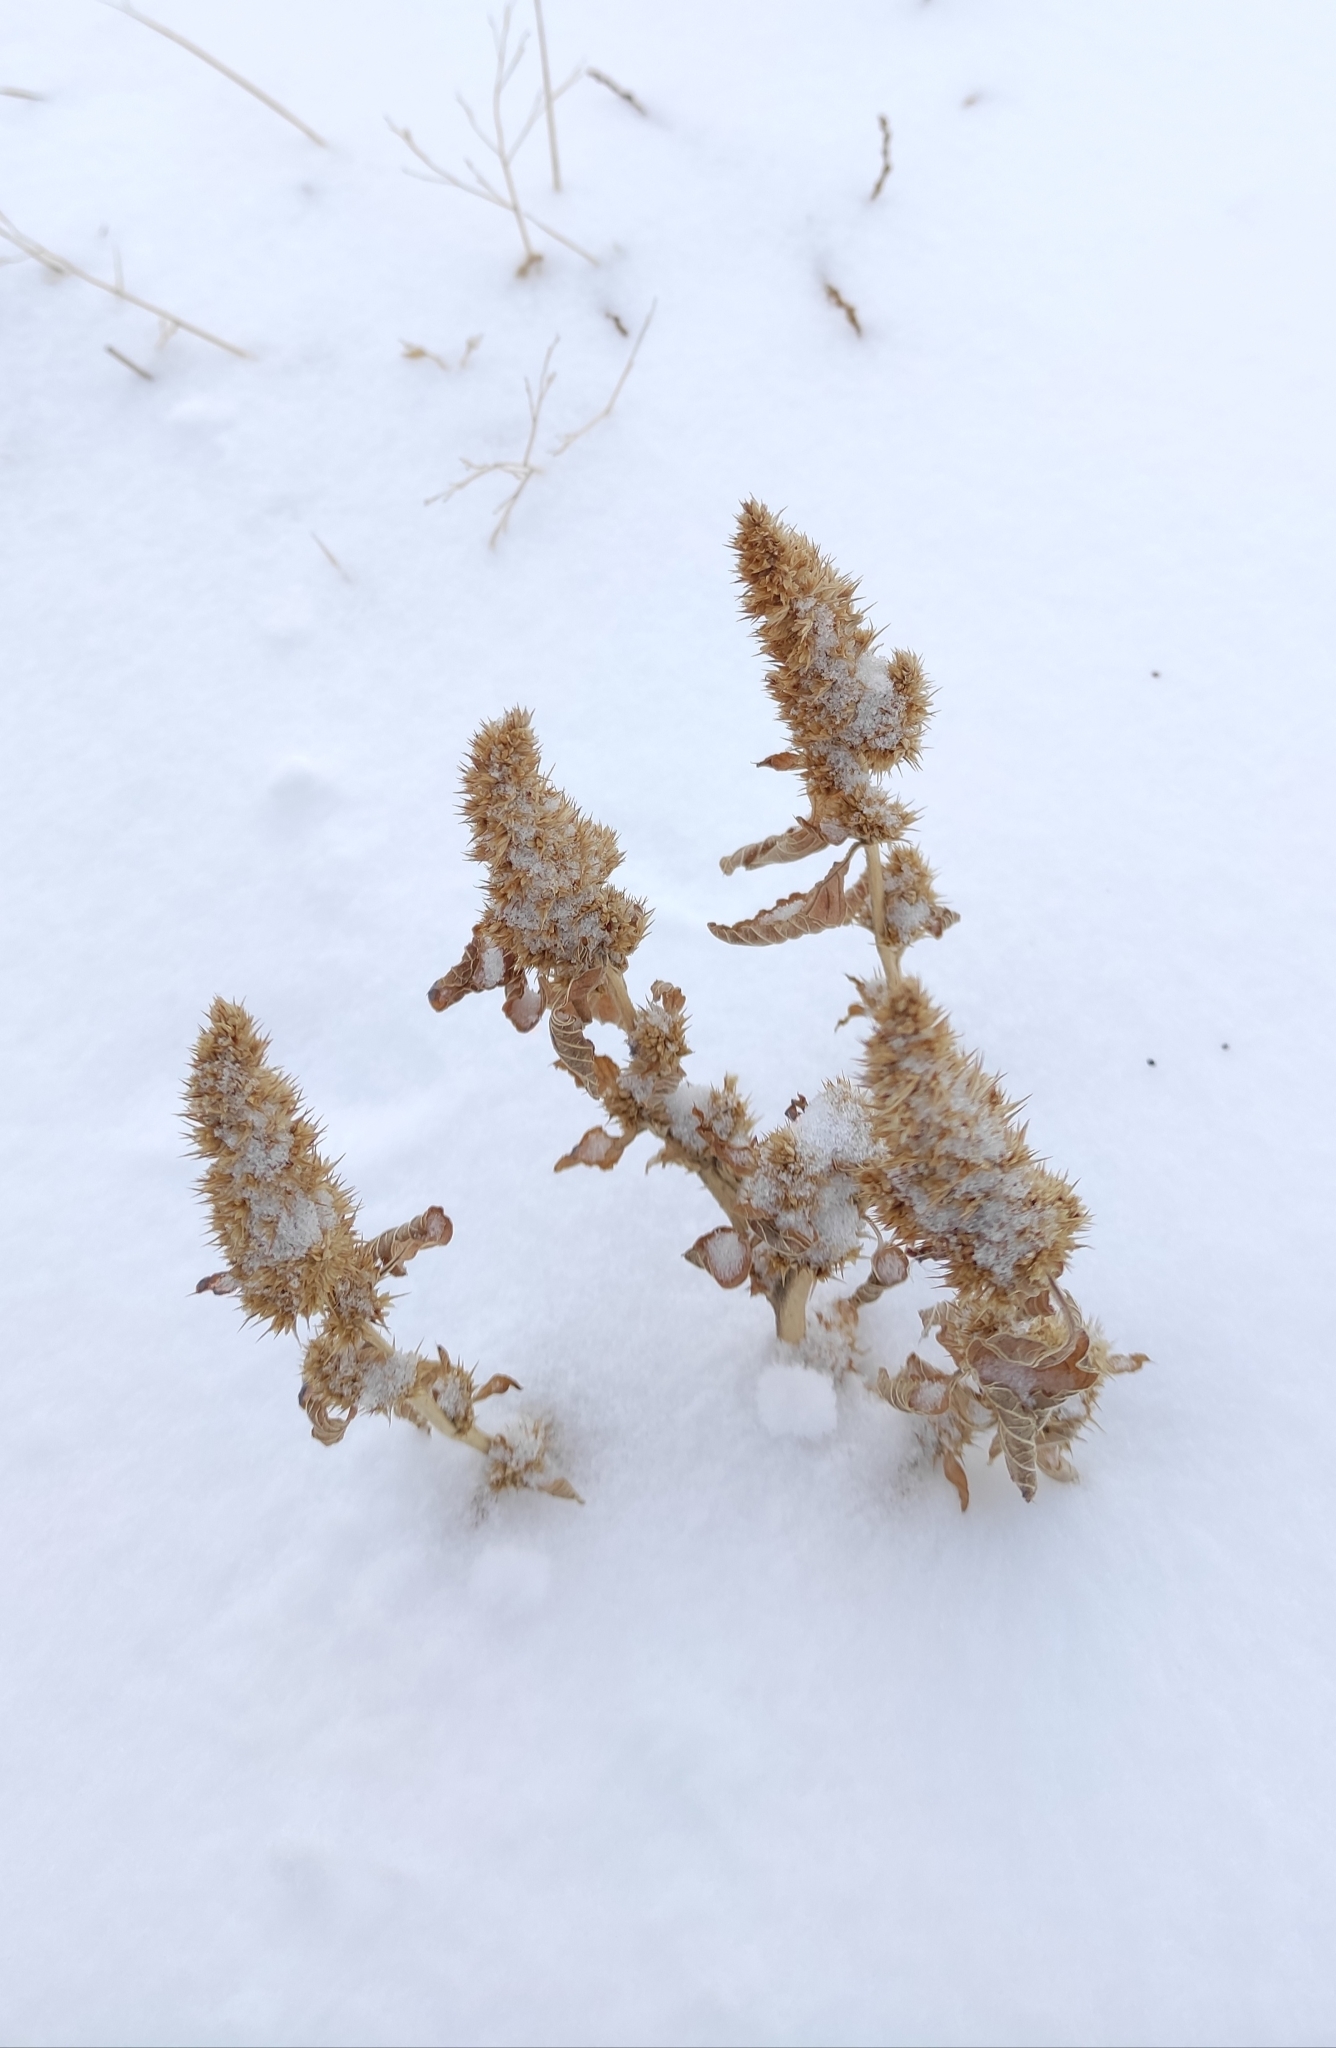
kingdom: Plantae
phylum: Tracheophyta
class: Magnoliopsida
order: Caryophyllales
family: Amaranthaceae
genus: Amaranthus
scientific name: Amaranthus retroflexus
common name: Redroot amaranth
